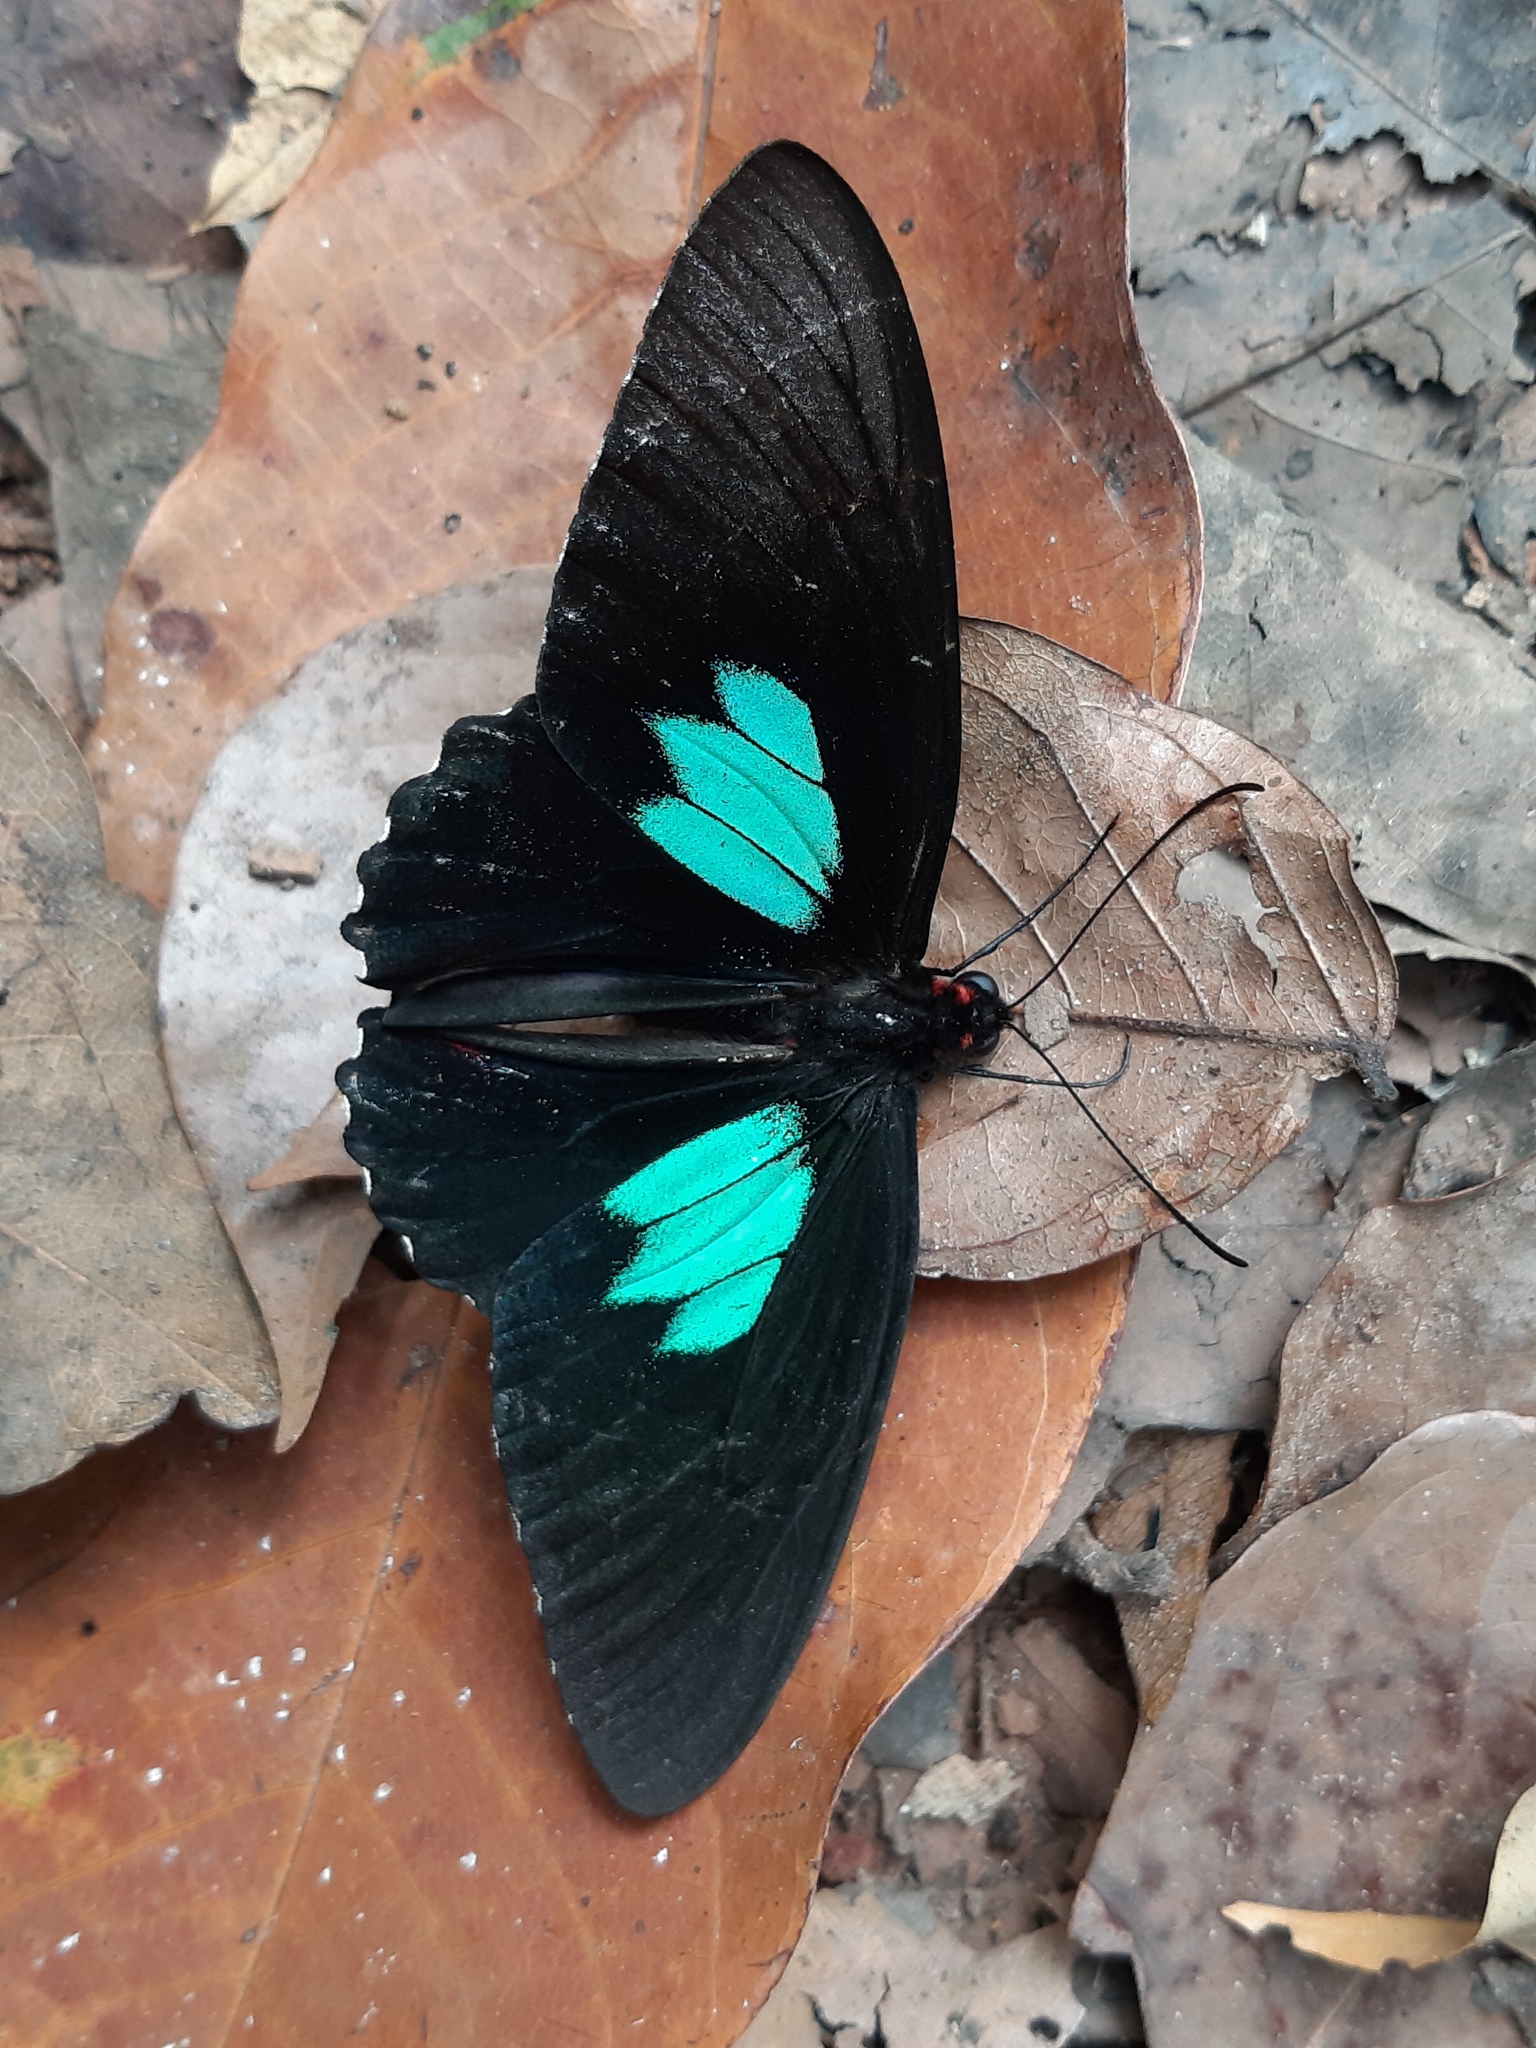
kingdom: Animalia
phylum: Arthropoda
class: Insecta
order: Lepidoptera
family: Papilionidae
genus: Parides
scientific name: Parides sesostris
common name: Southern cattle heart
